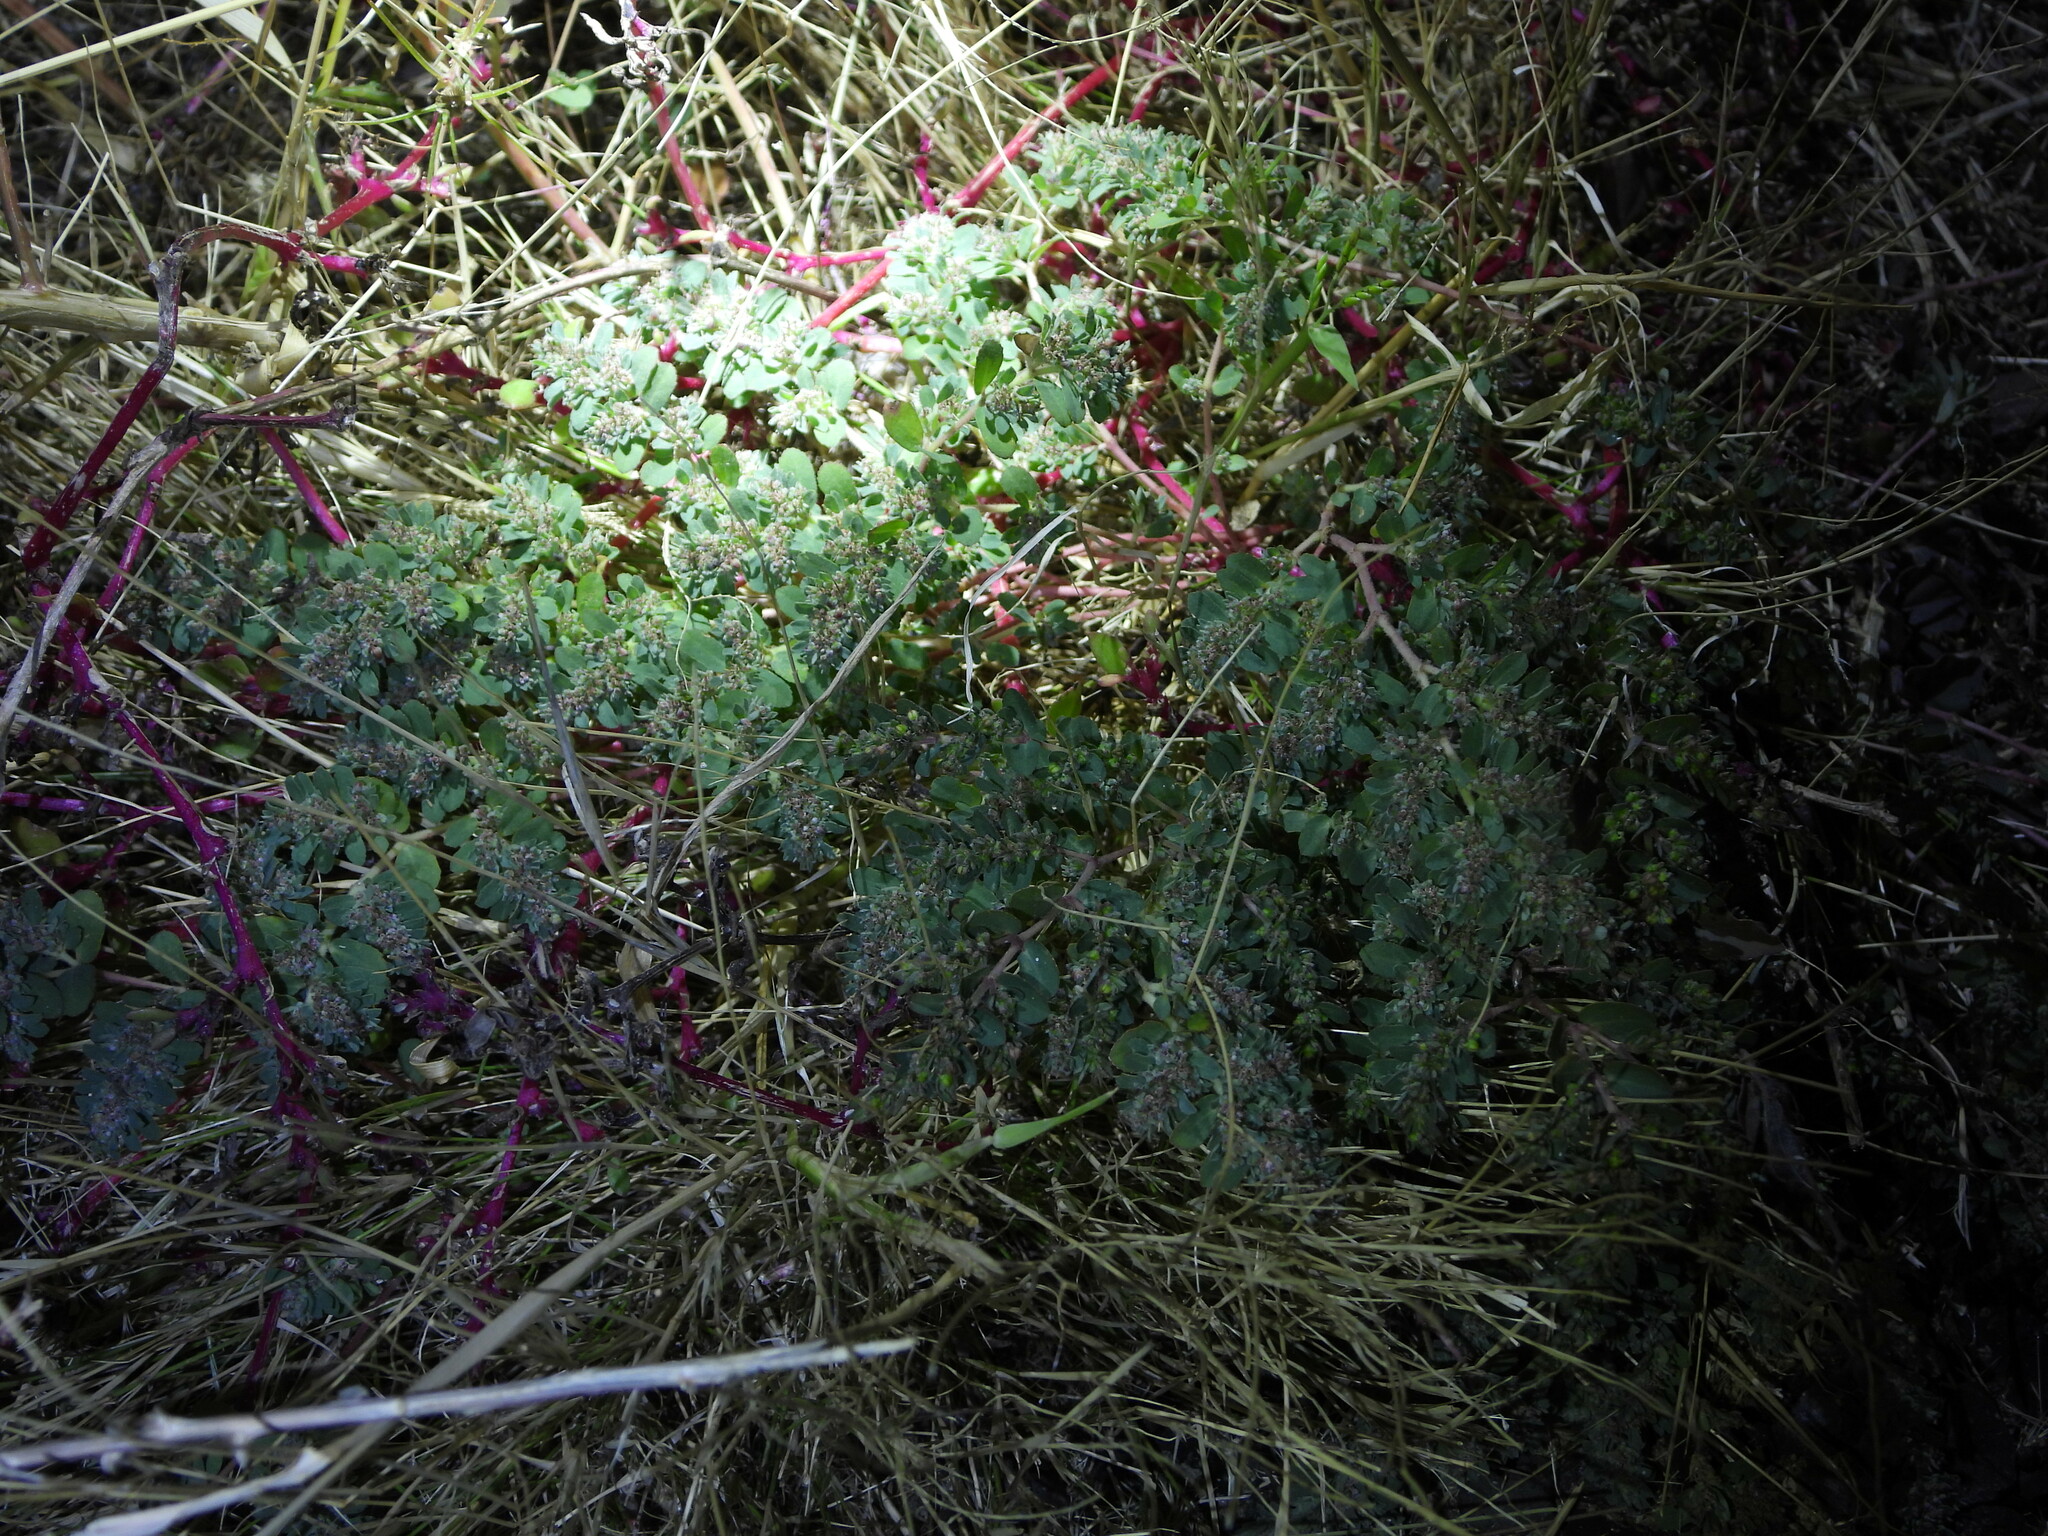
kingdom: Plantae
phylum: Tracheophyta
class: Magnoliopsida
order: Malpighiales
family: Euphorbiaceae
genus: Euphorbia
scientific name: Euphorbia stictospora
